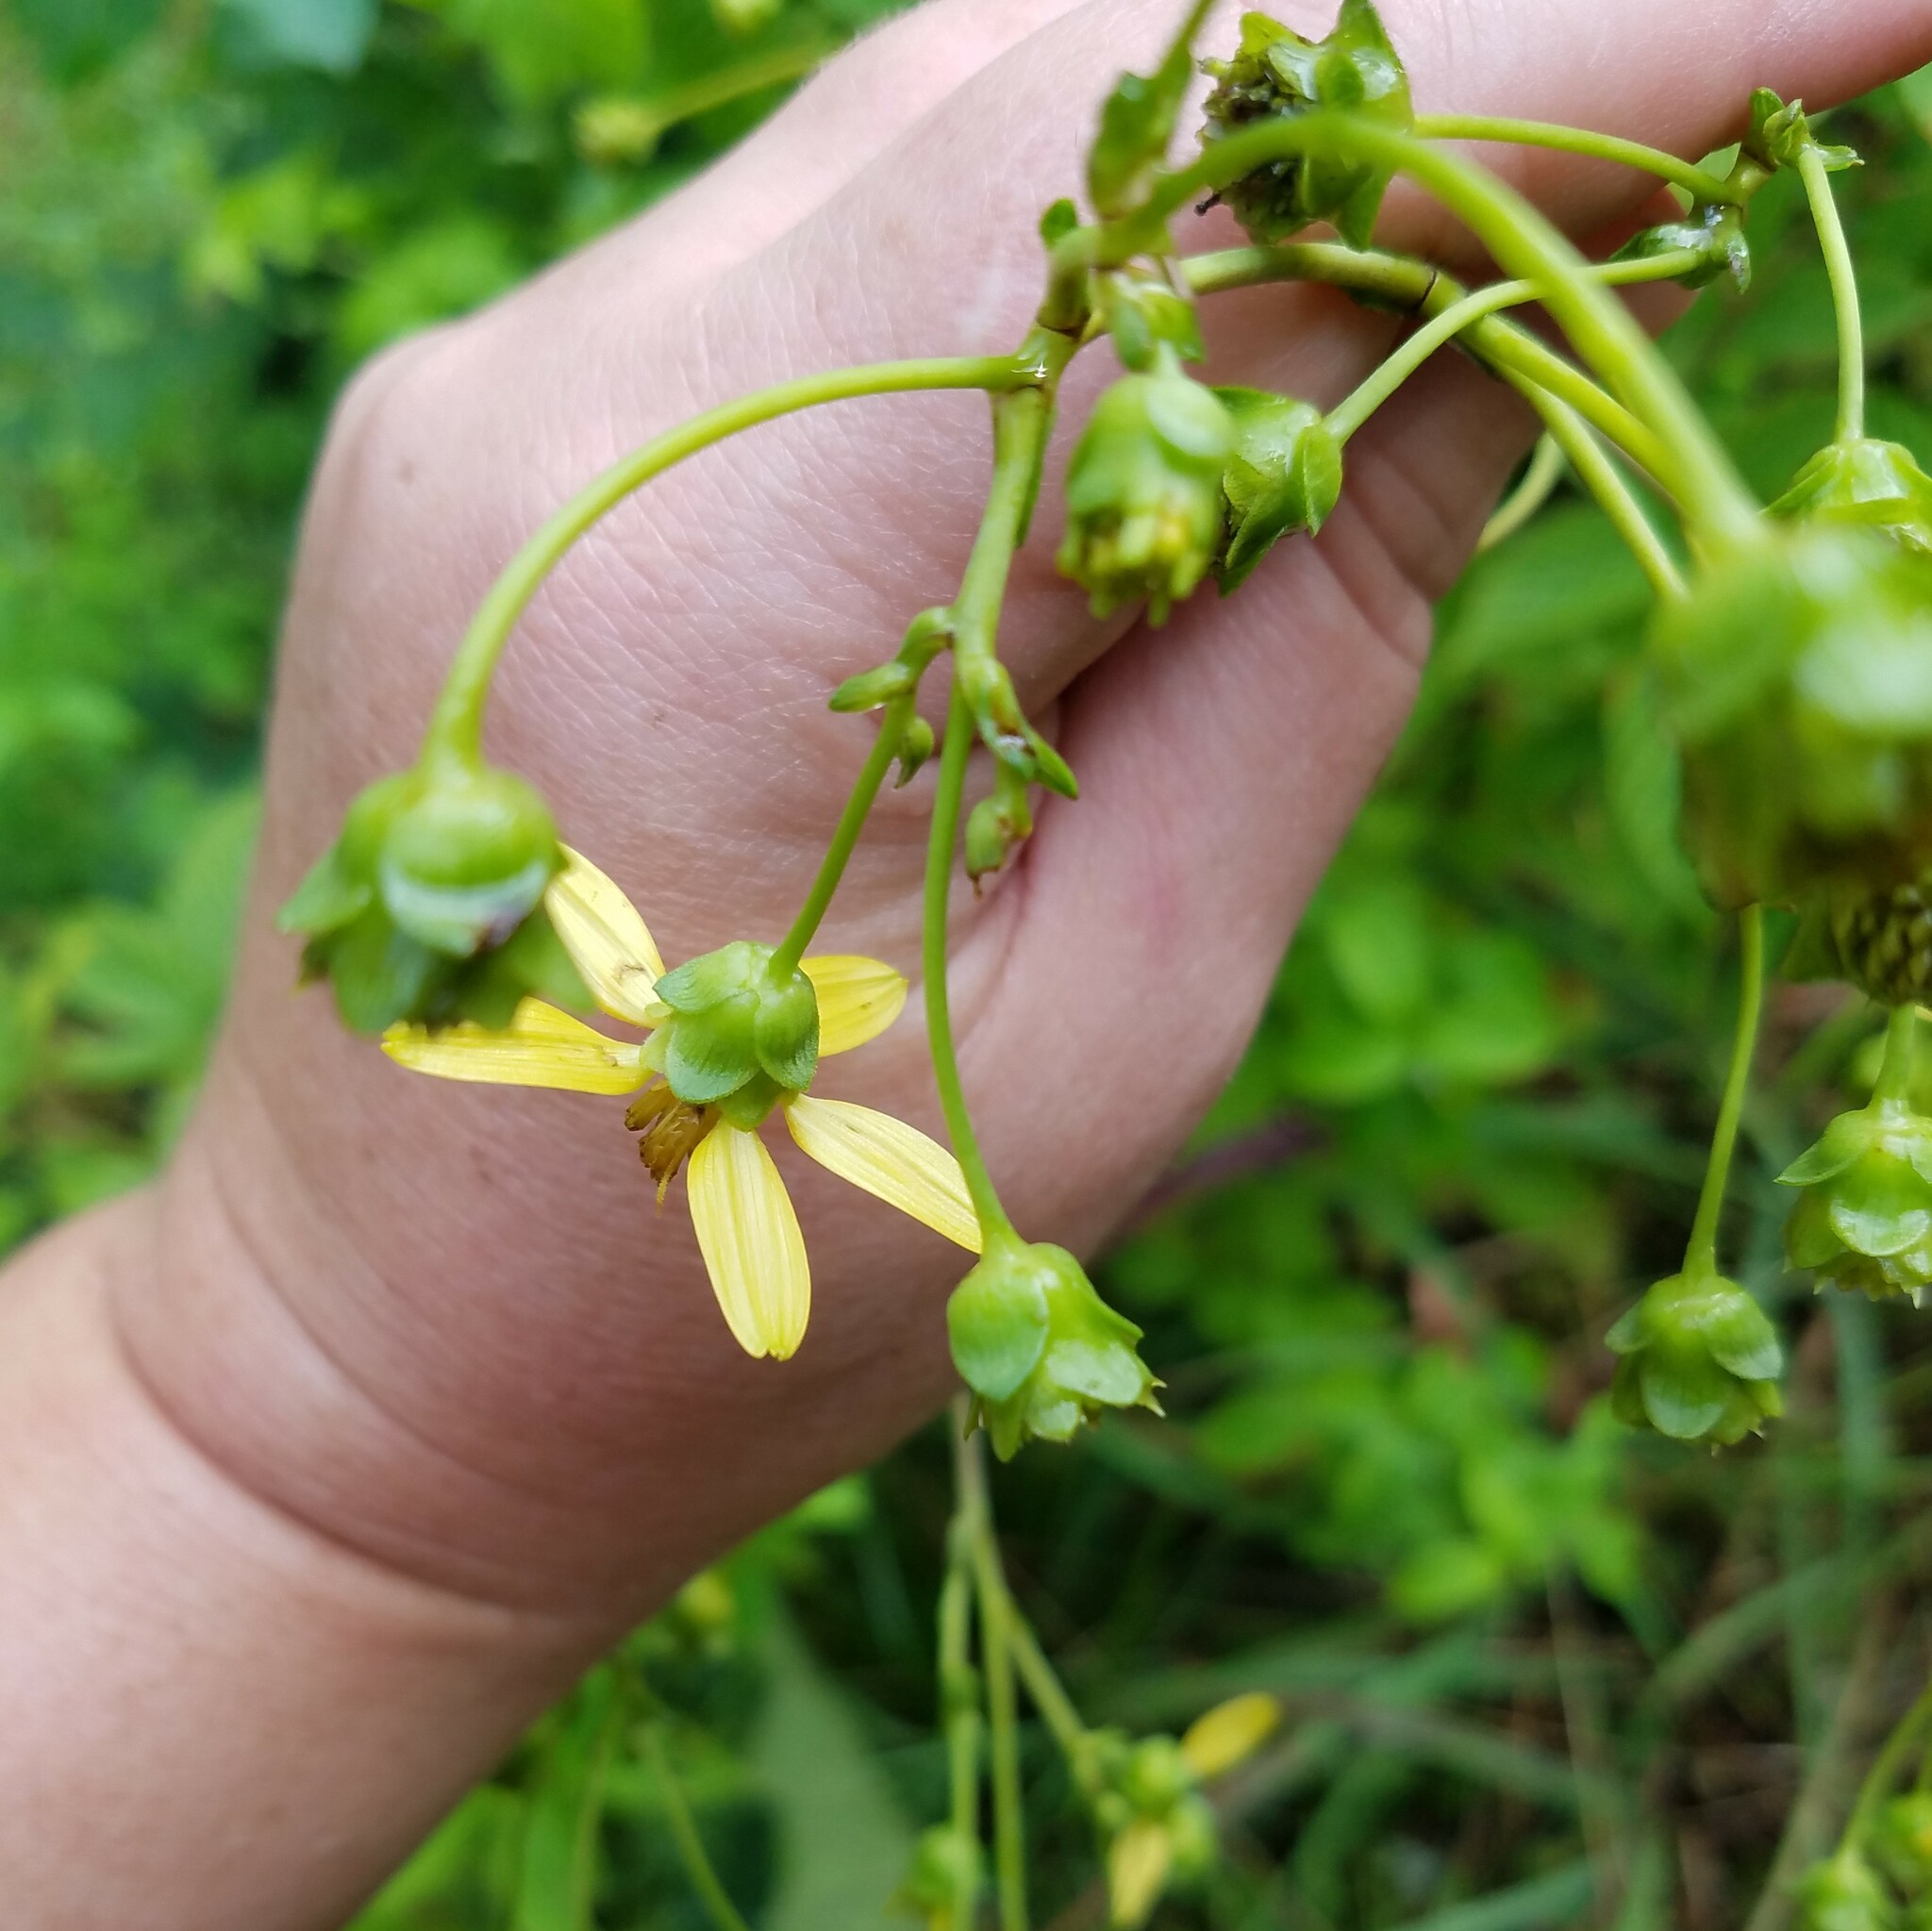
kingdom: Plantae
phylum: Tracheophyta
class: Magnoliopsida
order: Asterales
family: Asteraceae
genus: Silphium
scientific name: Silphium compositum
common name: Lesser basal-leaf rosinweed
